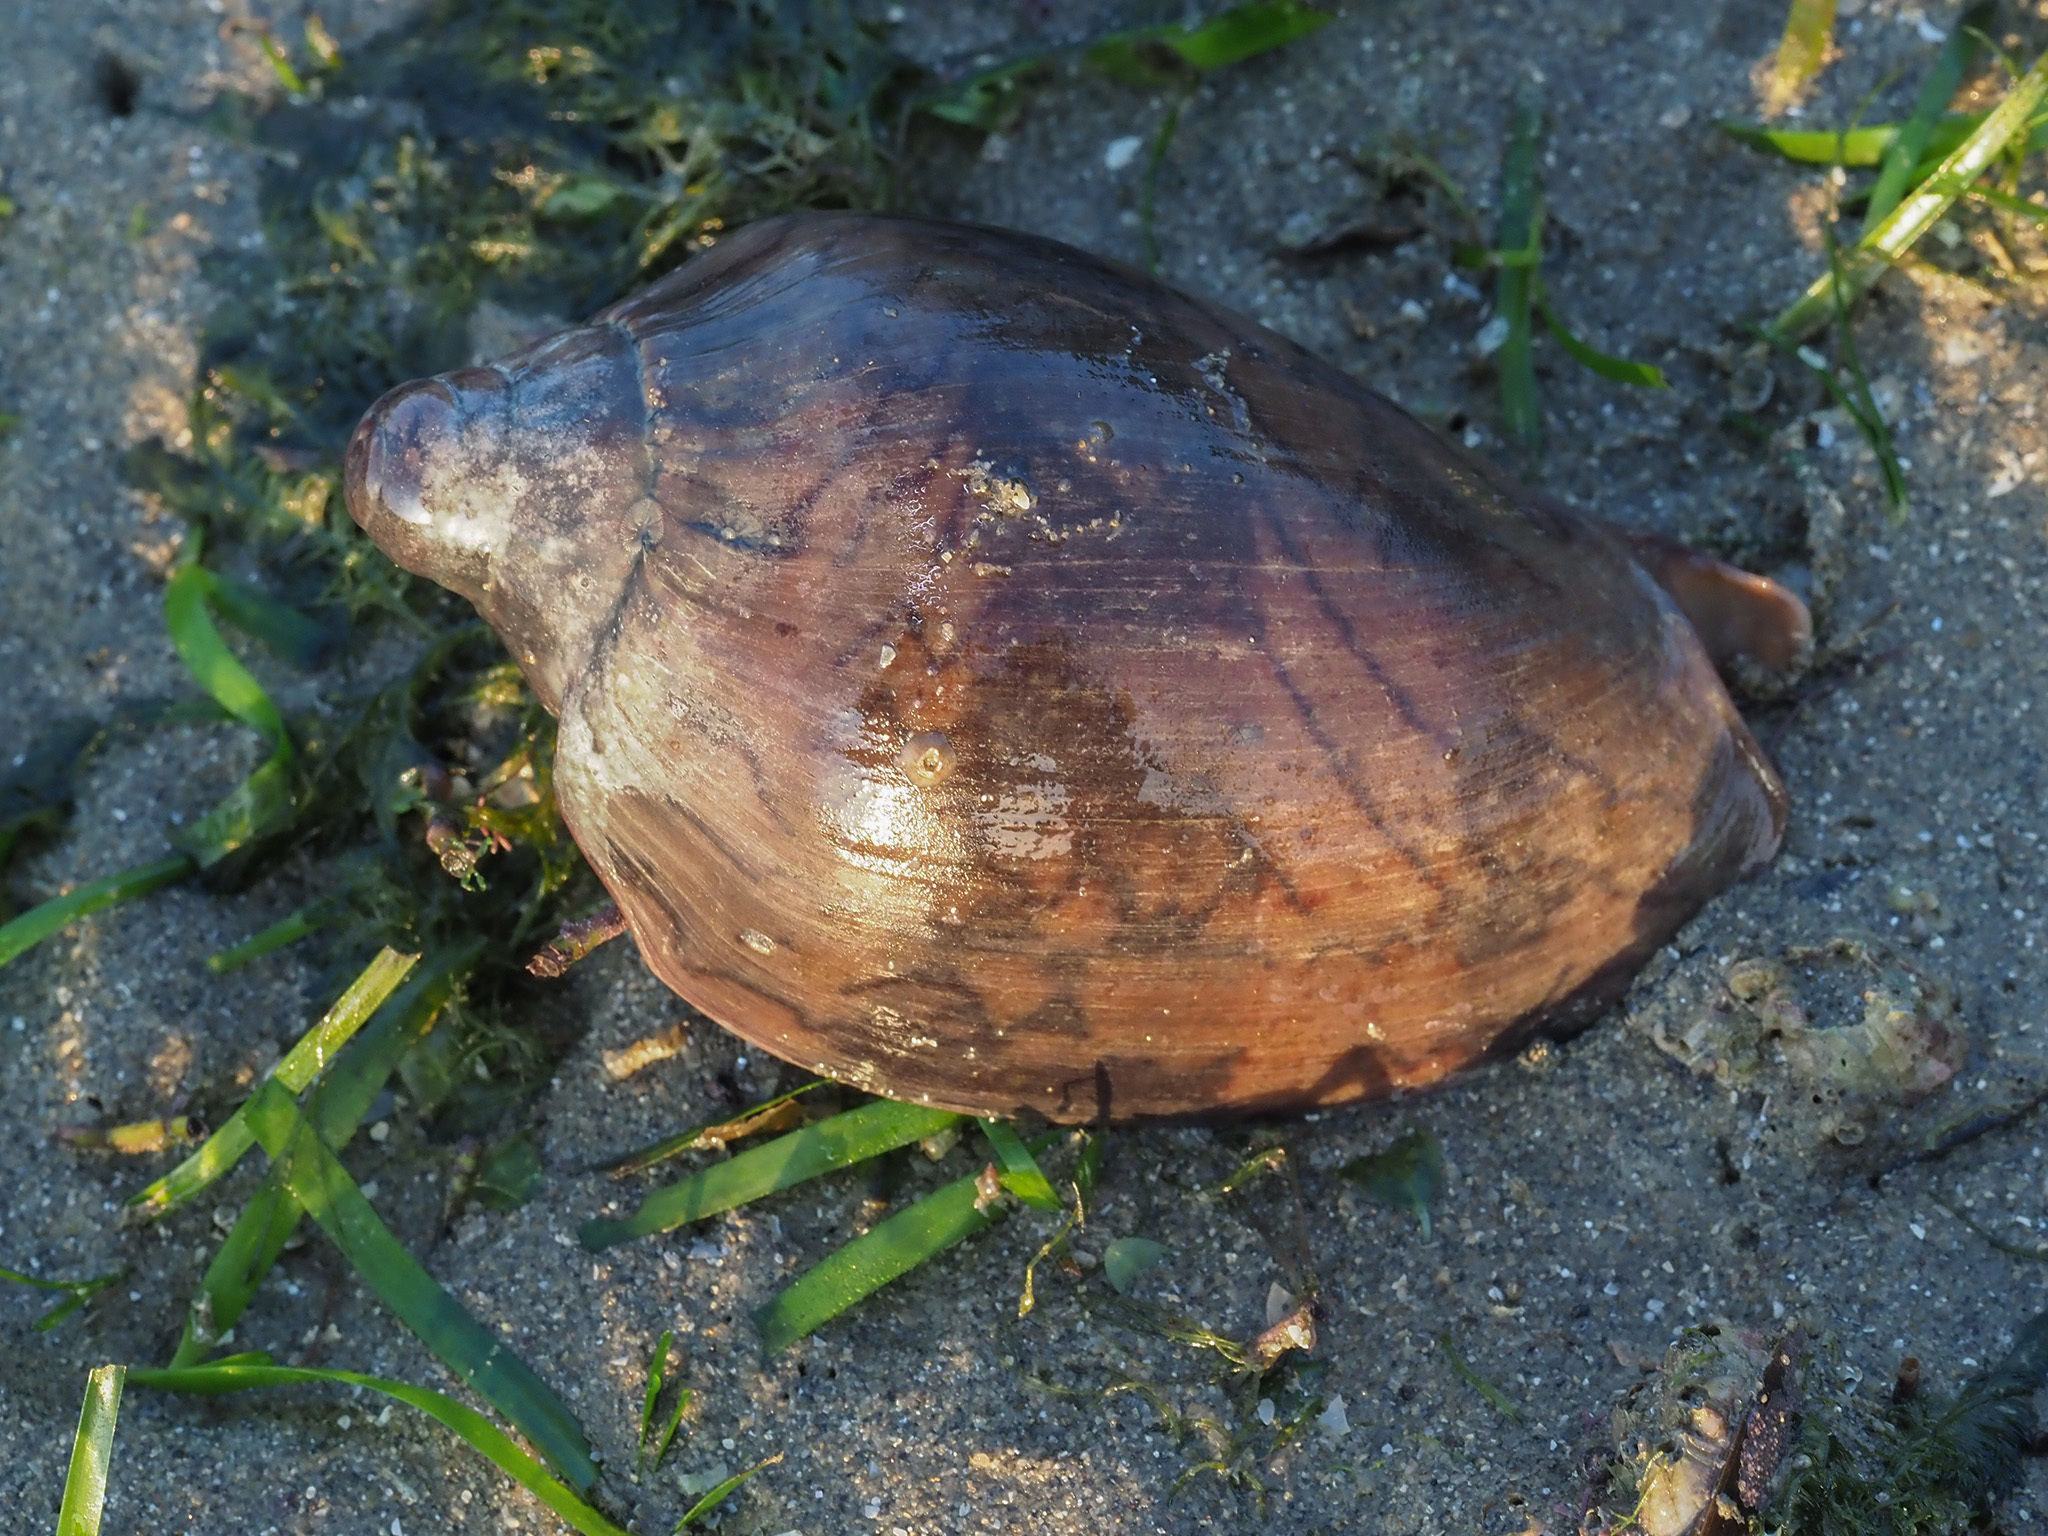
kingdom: Animalia
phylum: Mollusca
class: Gastropoda
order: Neogastropoda
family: Volutidae
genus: Cymbiola
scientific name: Cymbiola nobilis
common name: Noble volute
